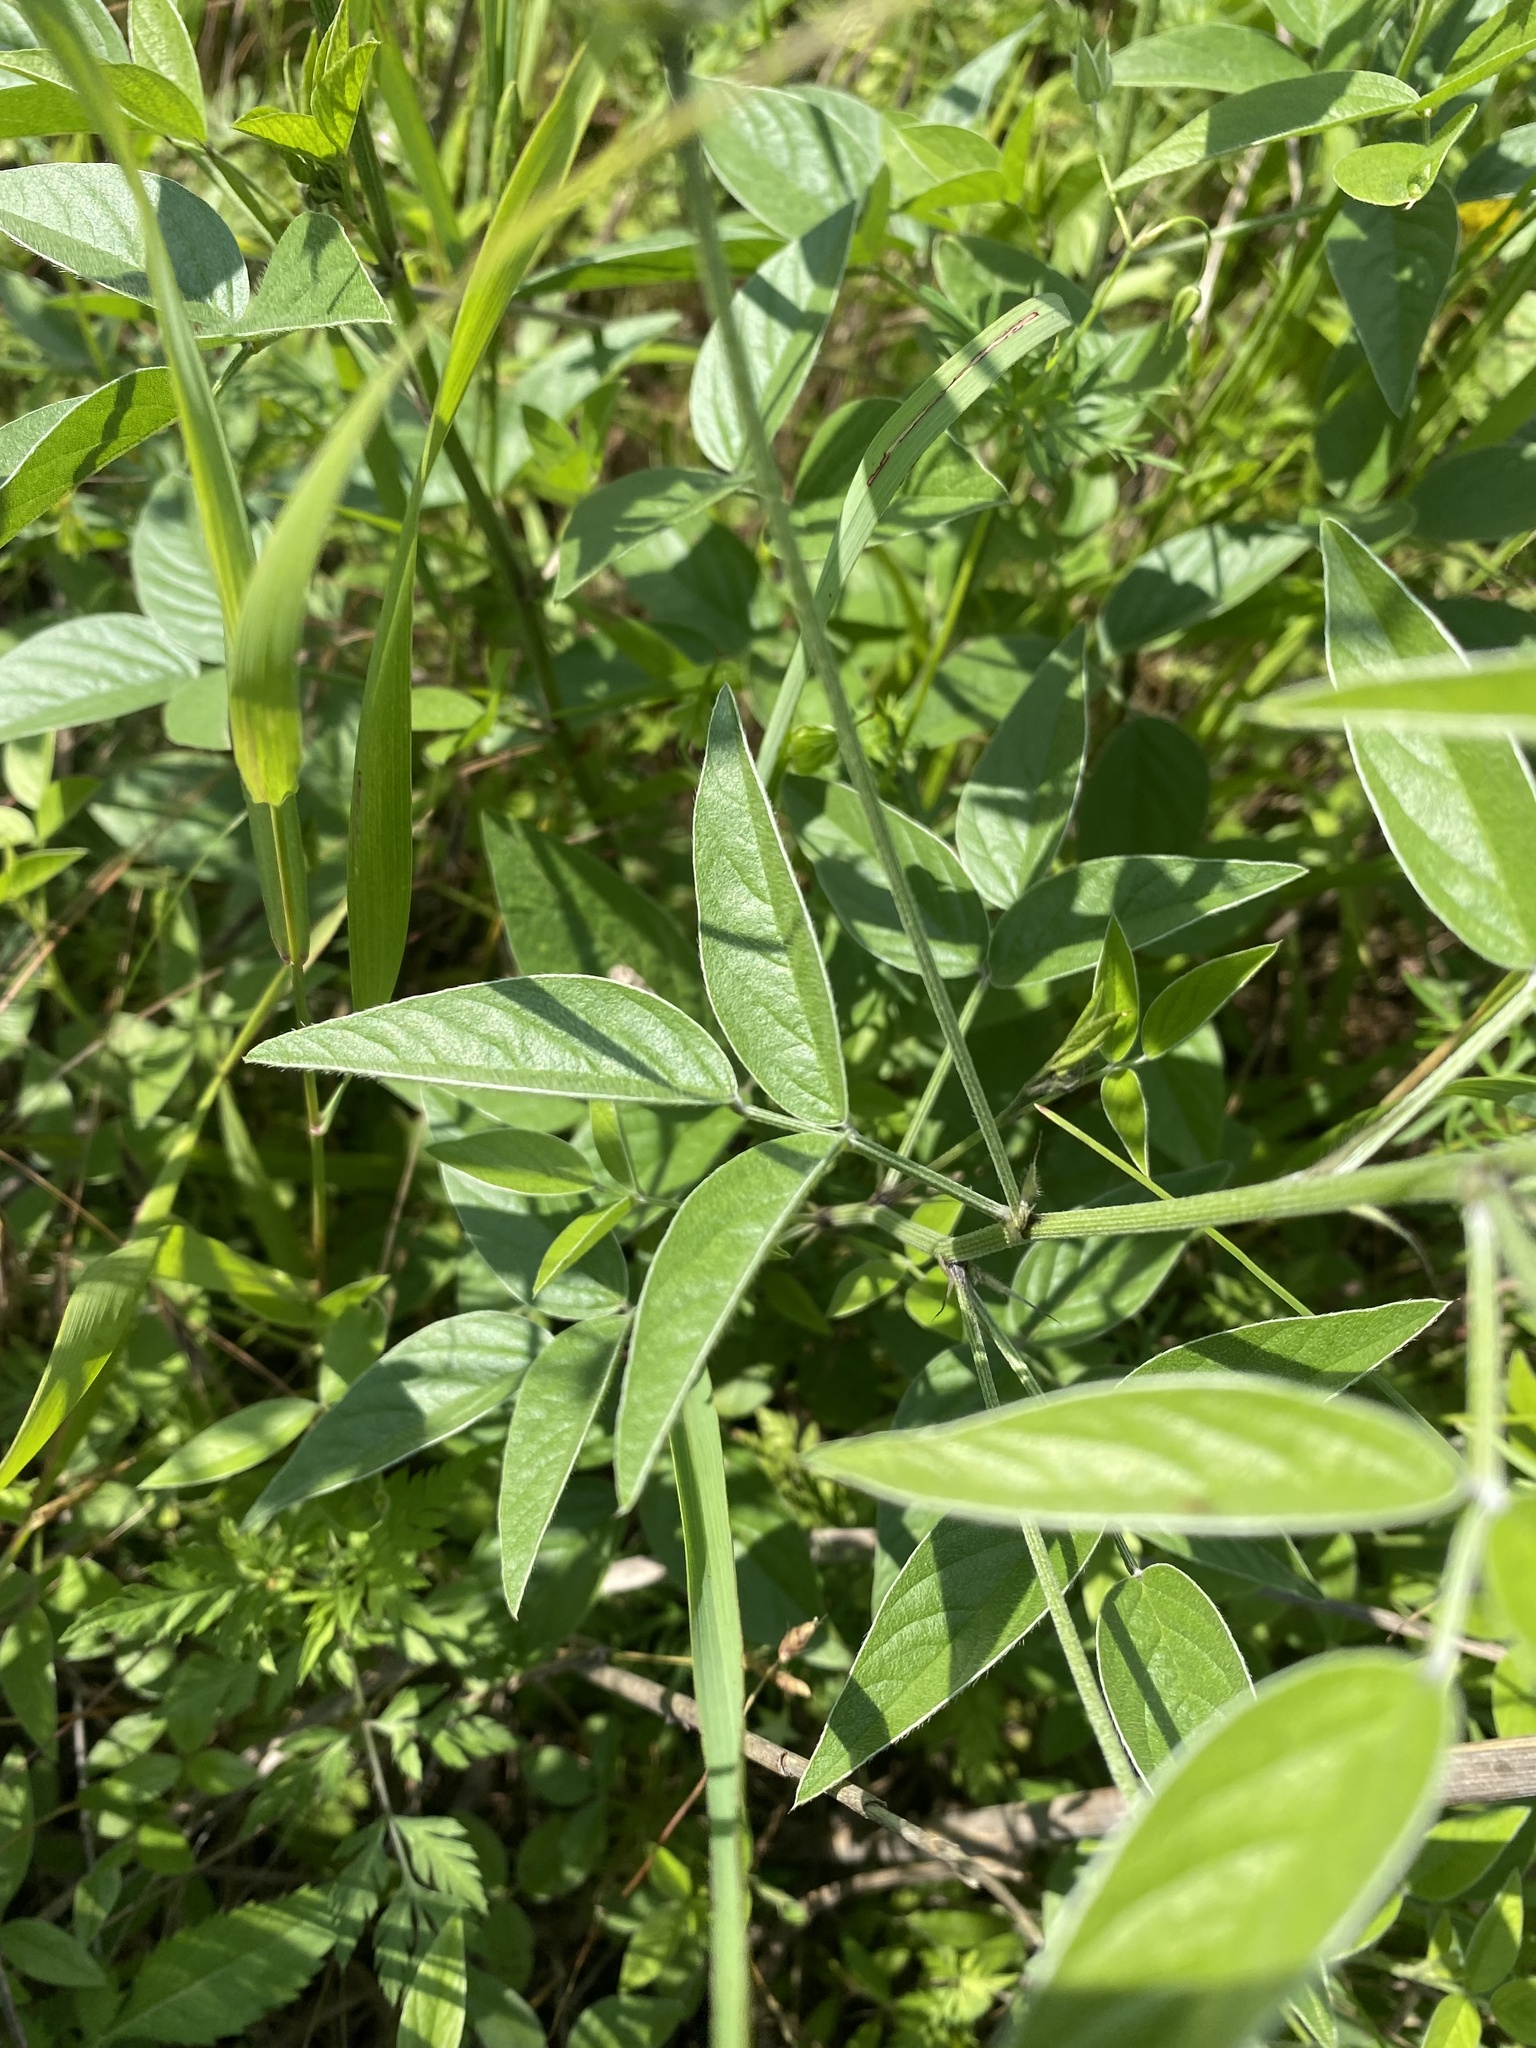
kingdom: Plantae
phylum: Tracheophyta
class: Magnoliopsida
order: Fabales
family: Fabaceae
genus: Bituminaria
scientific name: Bituminaria bituminosa
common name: Arabian pea
